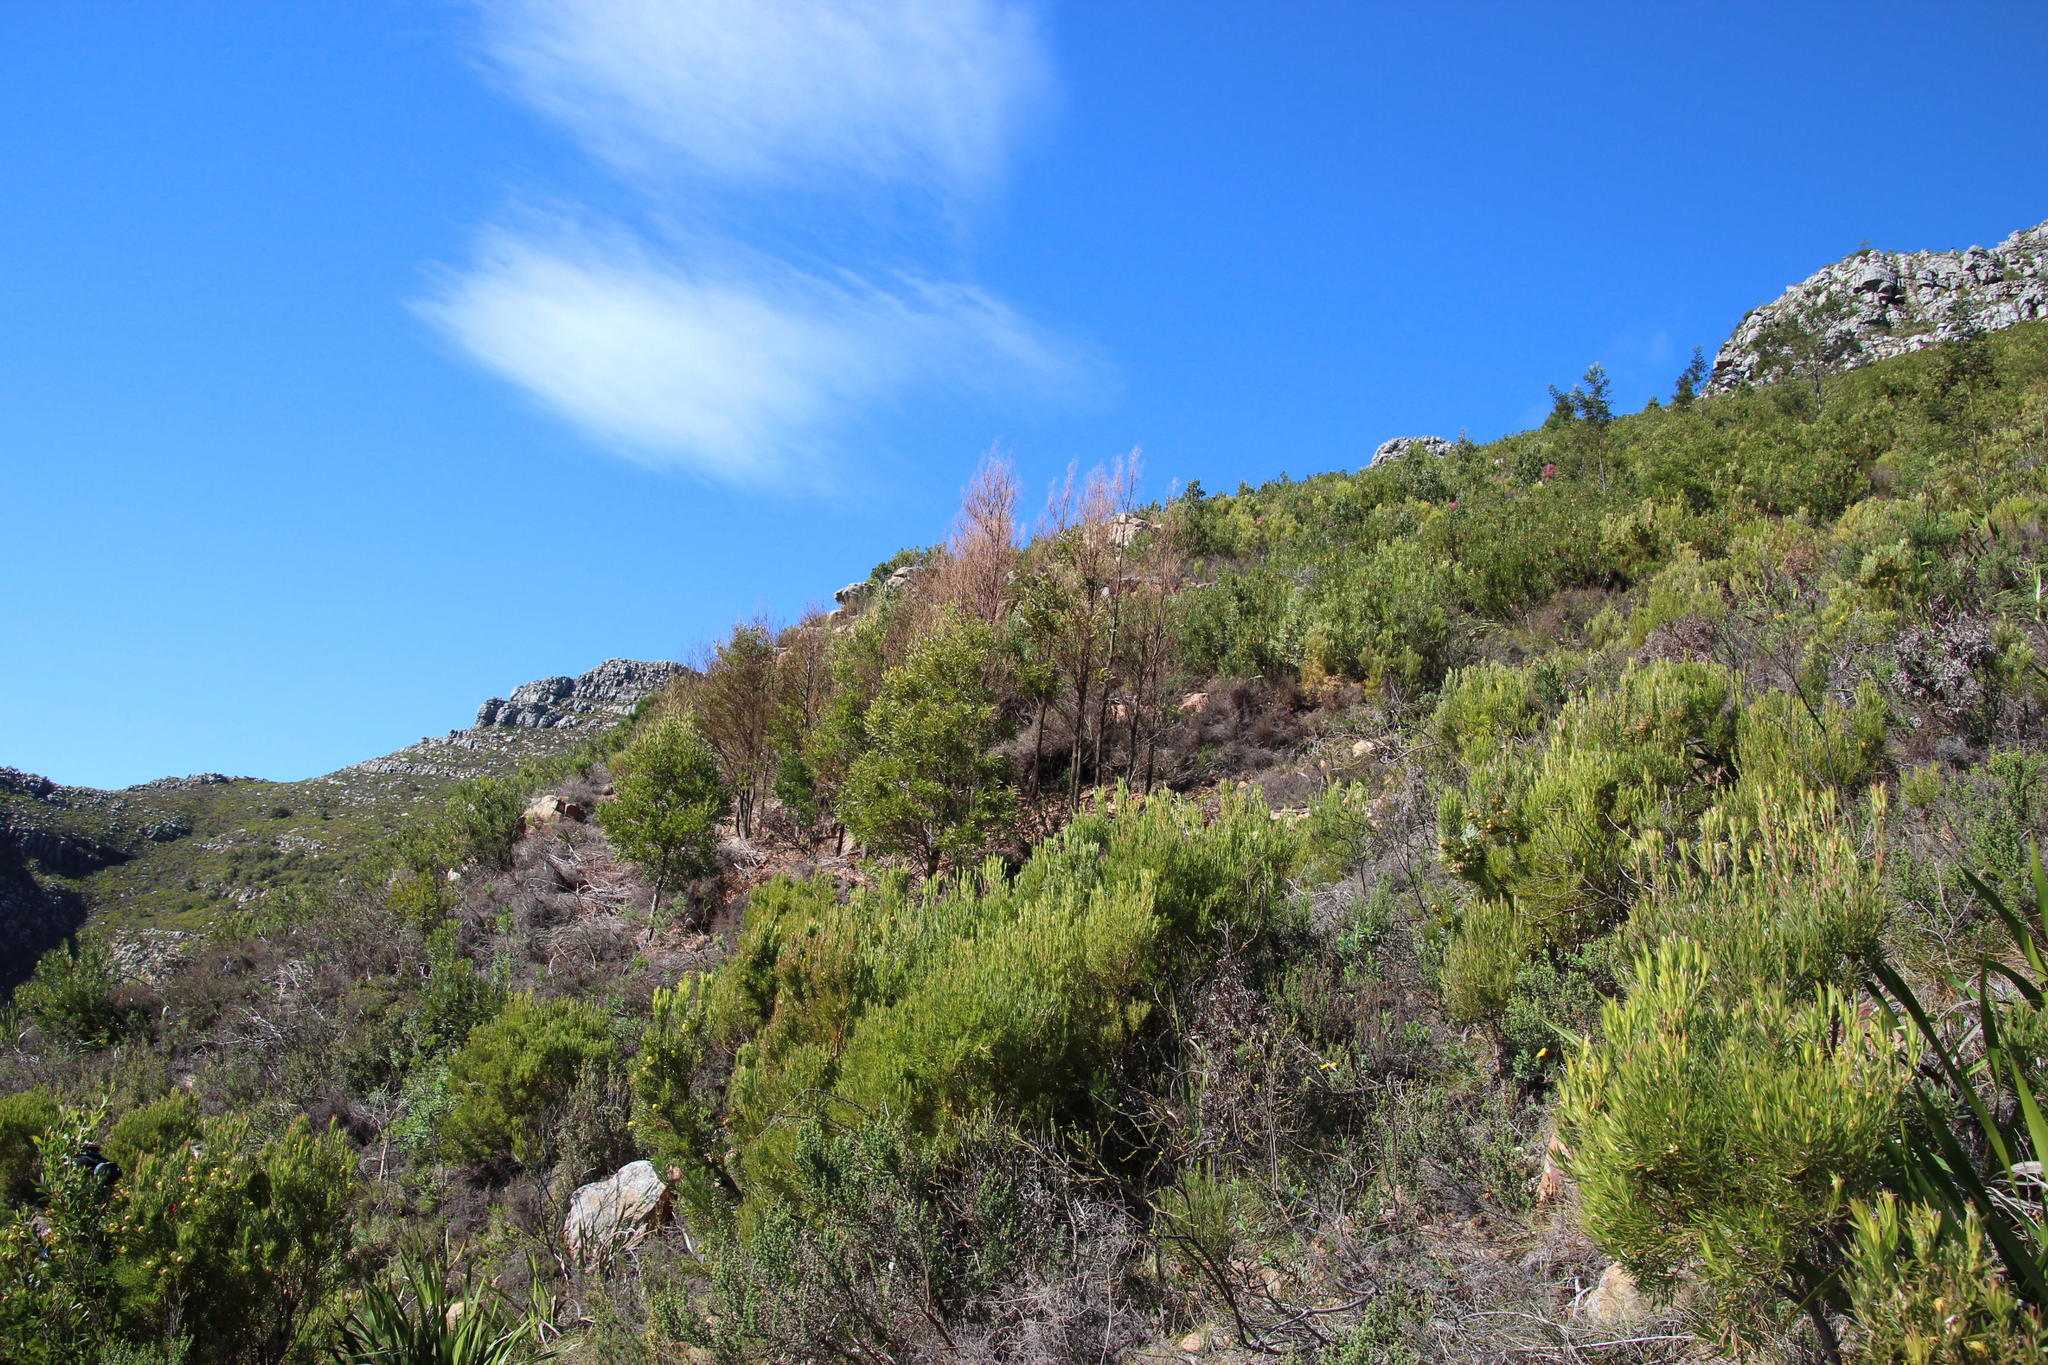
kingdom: Plantae
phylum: Tracheophyta
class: Magnoliopsida
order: Fabales
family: Fabaceae
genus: Acacia
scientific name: Acacia melanoxylon
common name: Blackwood
